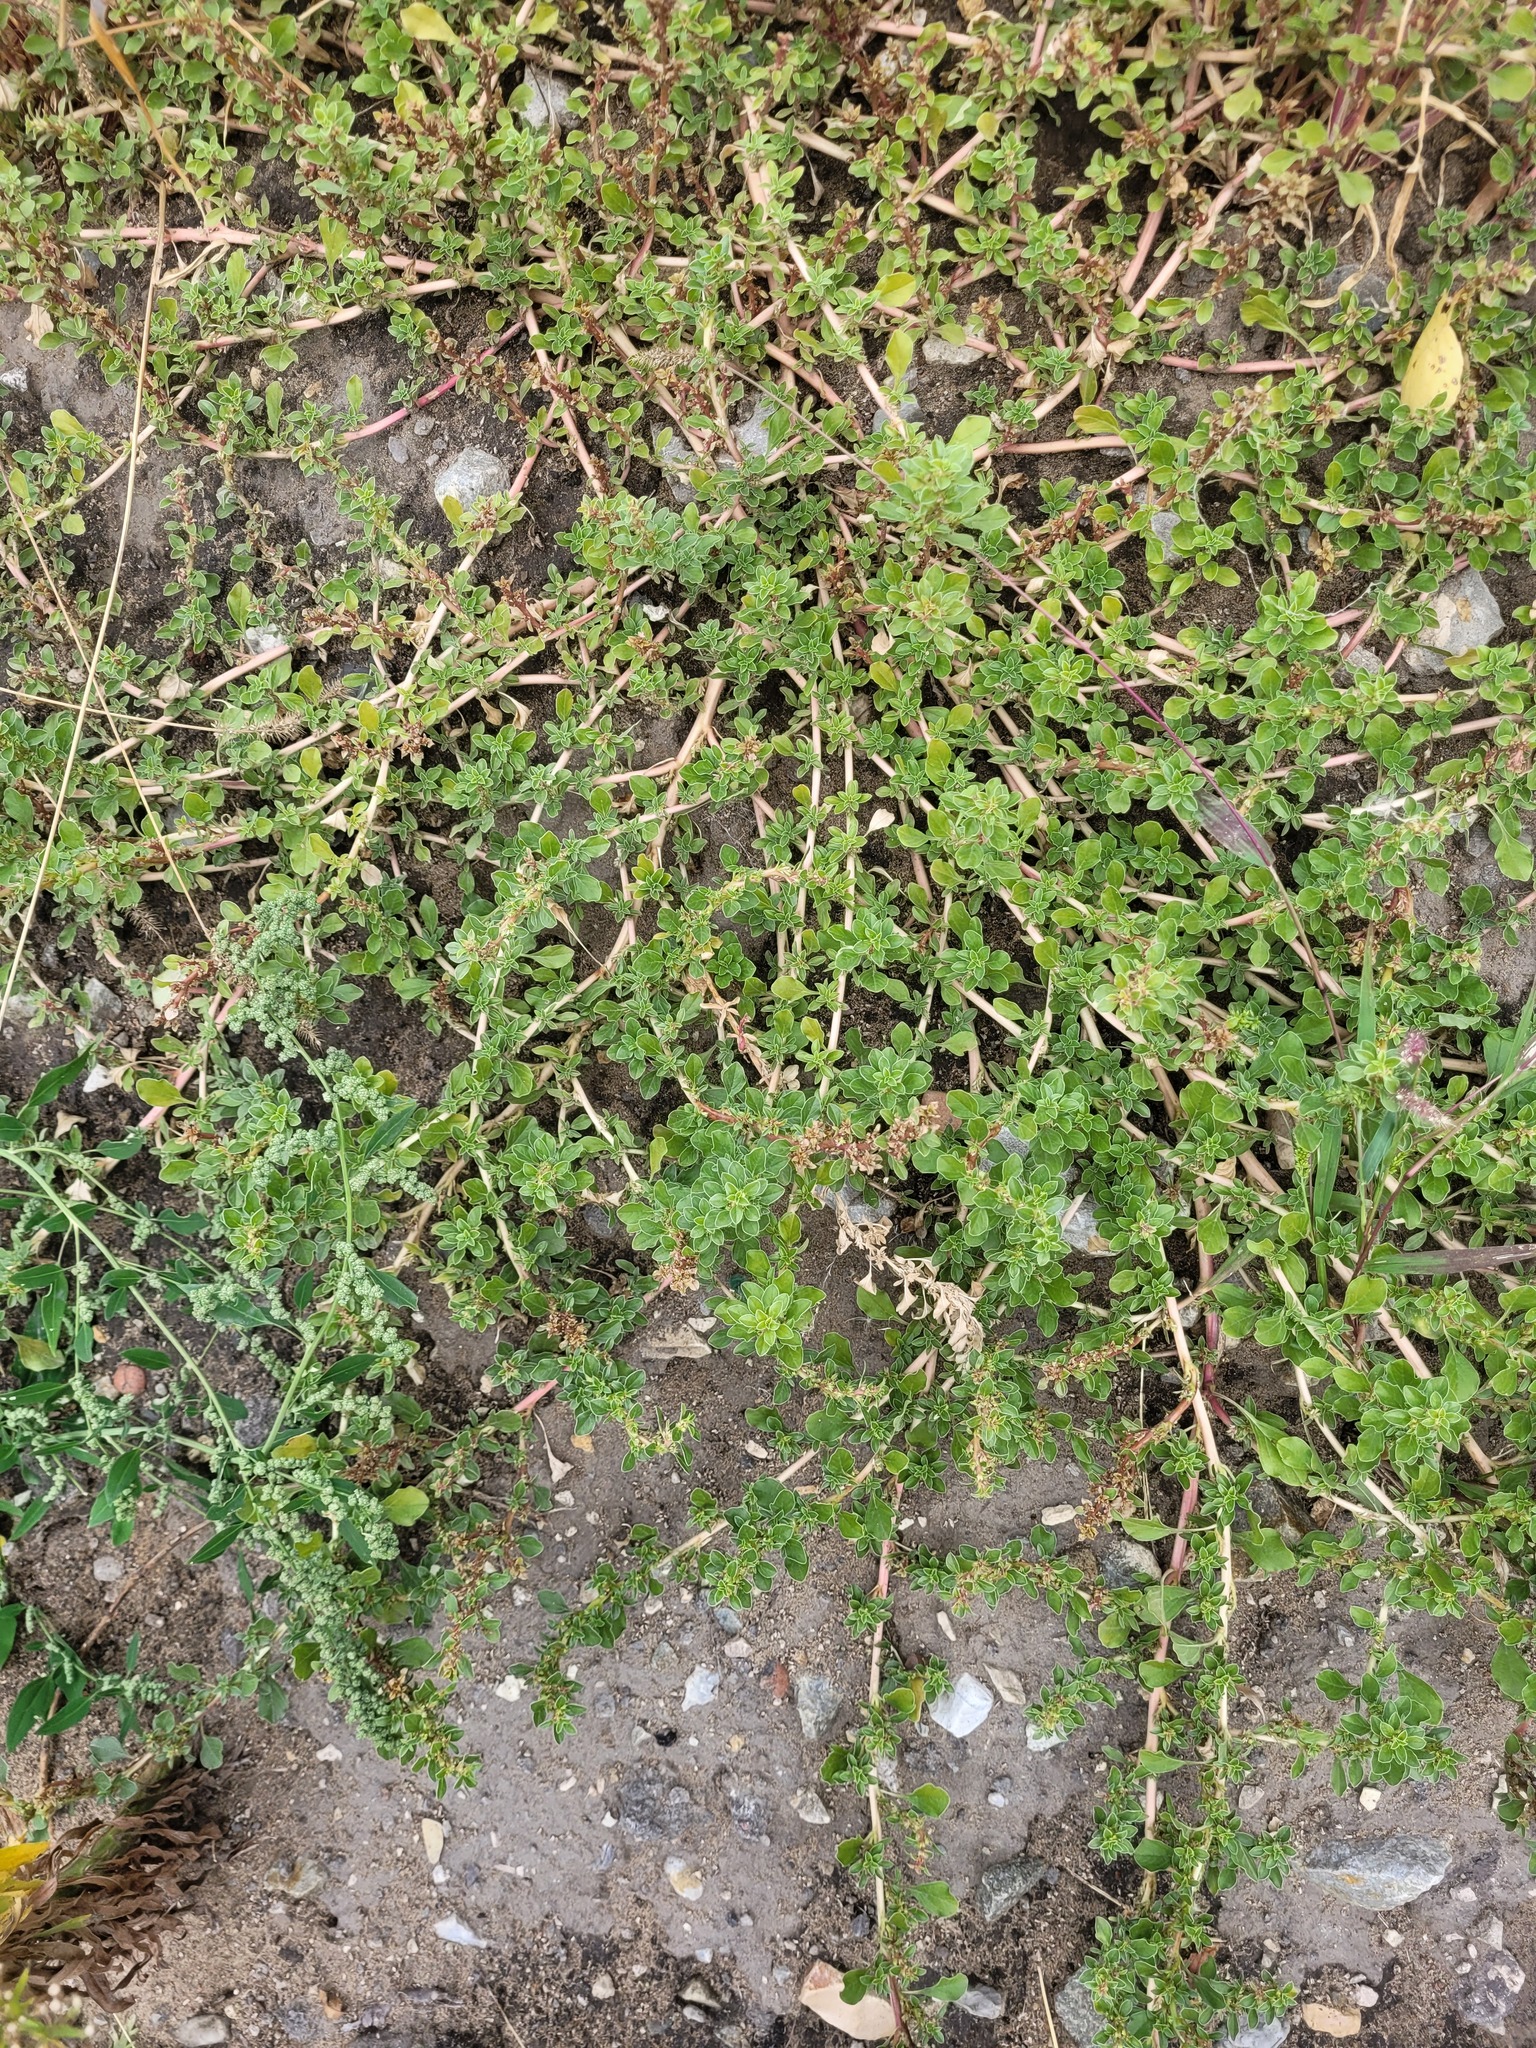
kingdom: Plantae
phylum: Tracheophyta
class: Magnoliopsida
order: Caryophyllales
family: Amaranthaceae
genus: Amaranthus
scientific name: Amaranthus blitoides
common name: Prostrate pigweed
